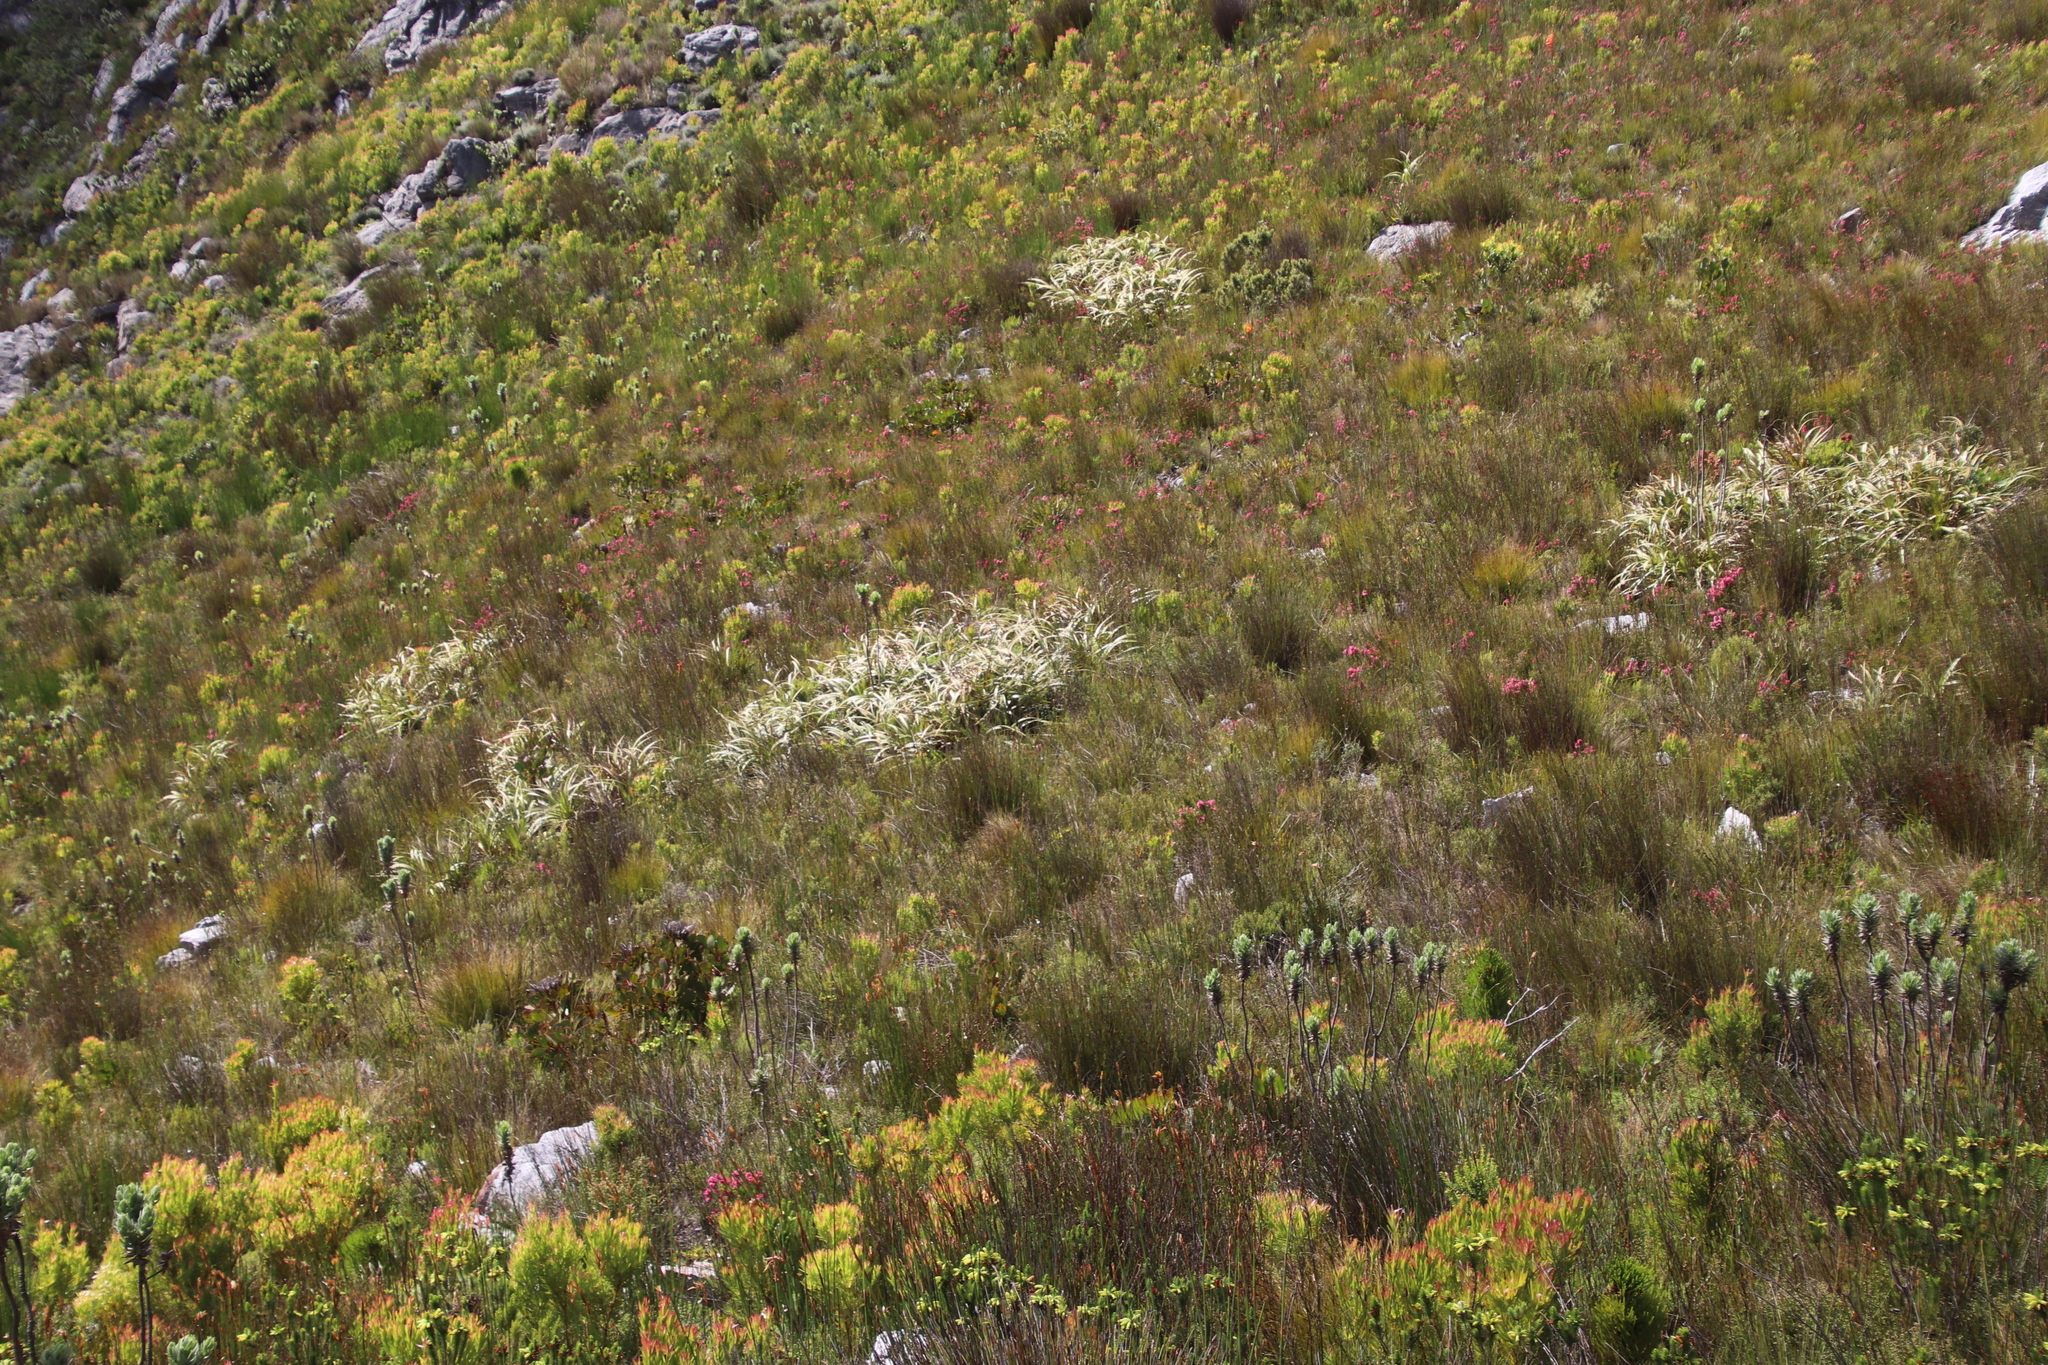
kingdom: Plantae
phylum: Tracheophyta
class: Liliopsida
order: Poales
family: Cyperaceae
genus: Tetraria
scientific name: Tetraria thermalis
